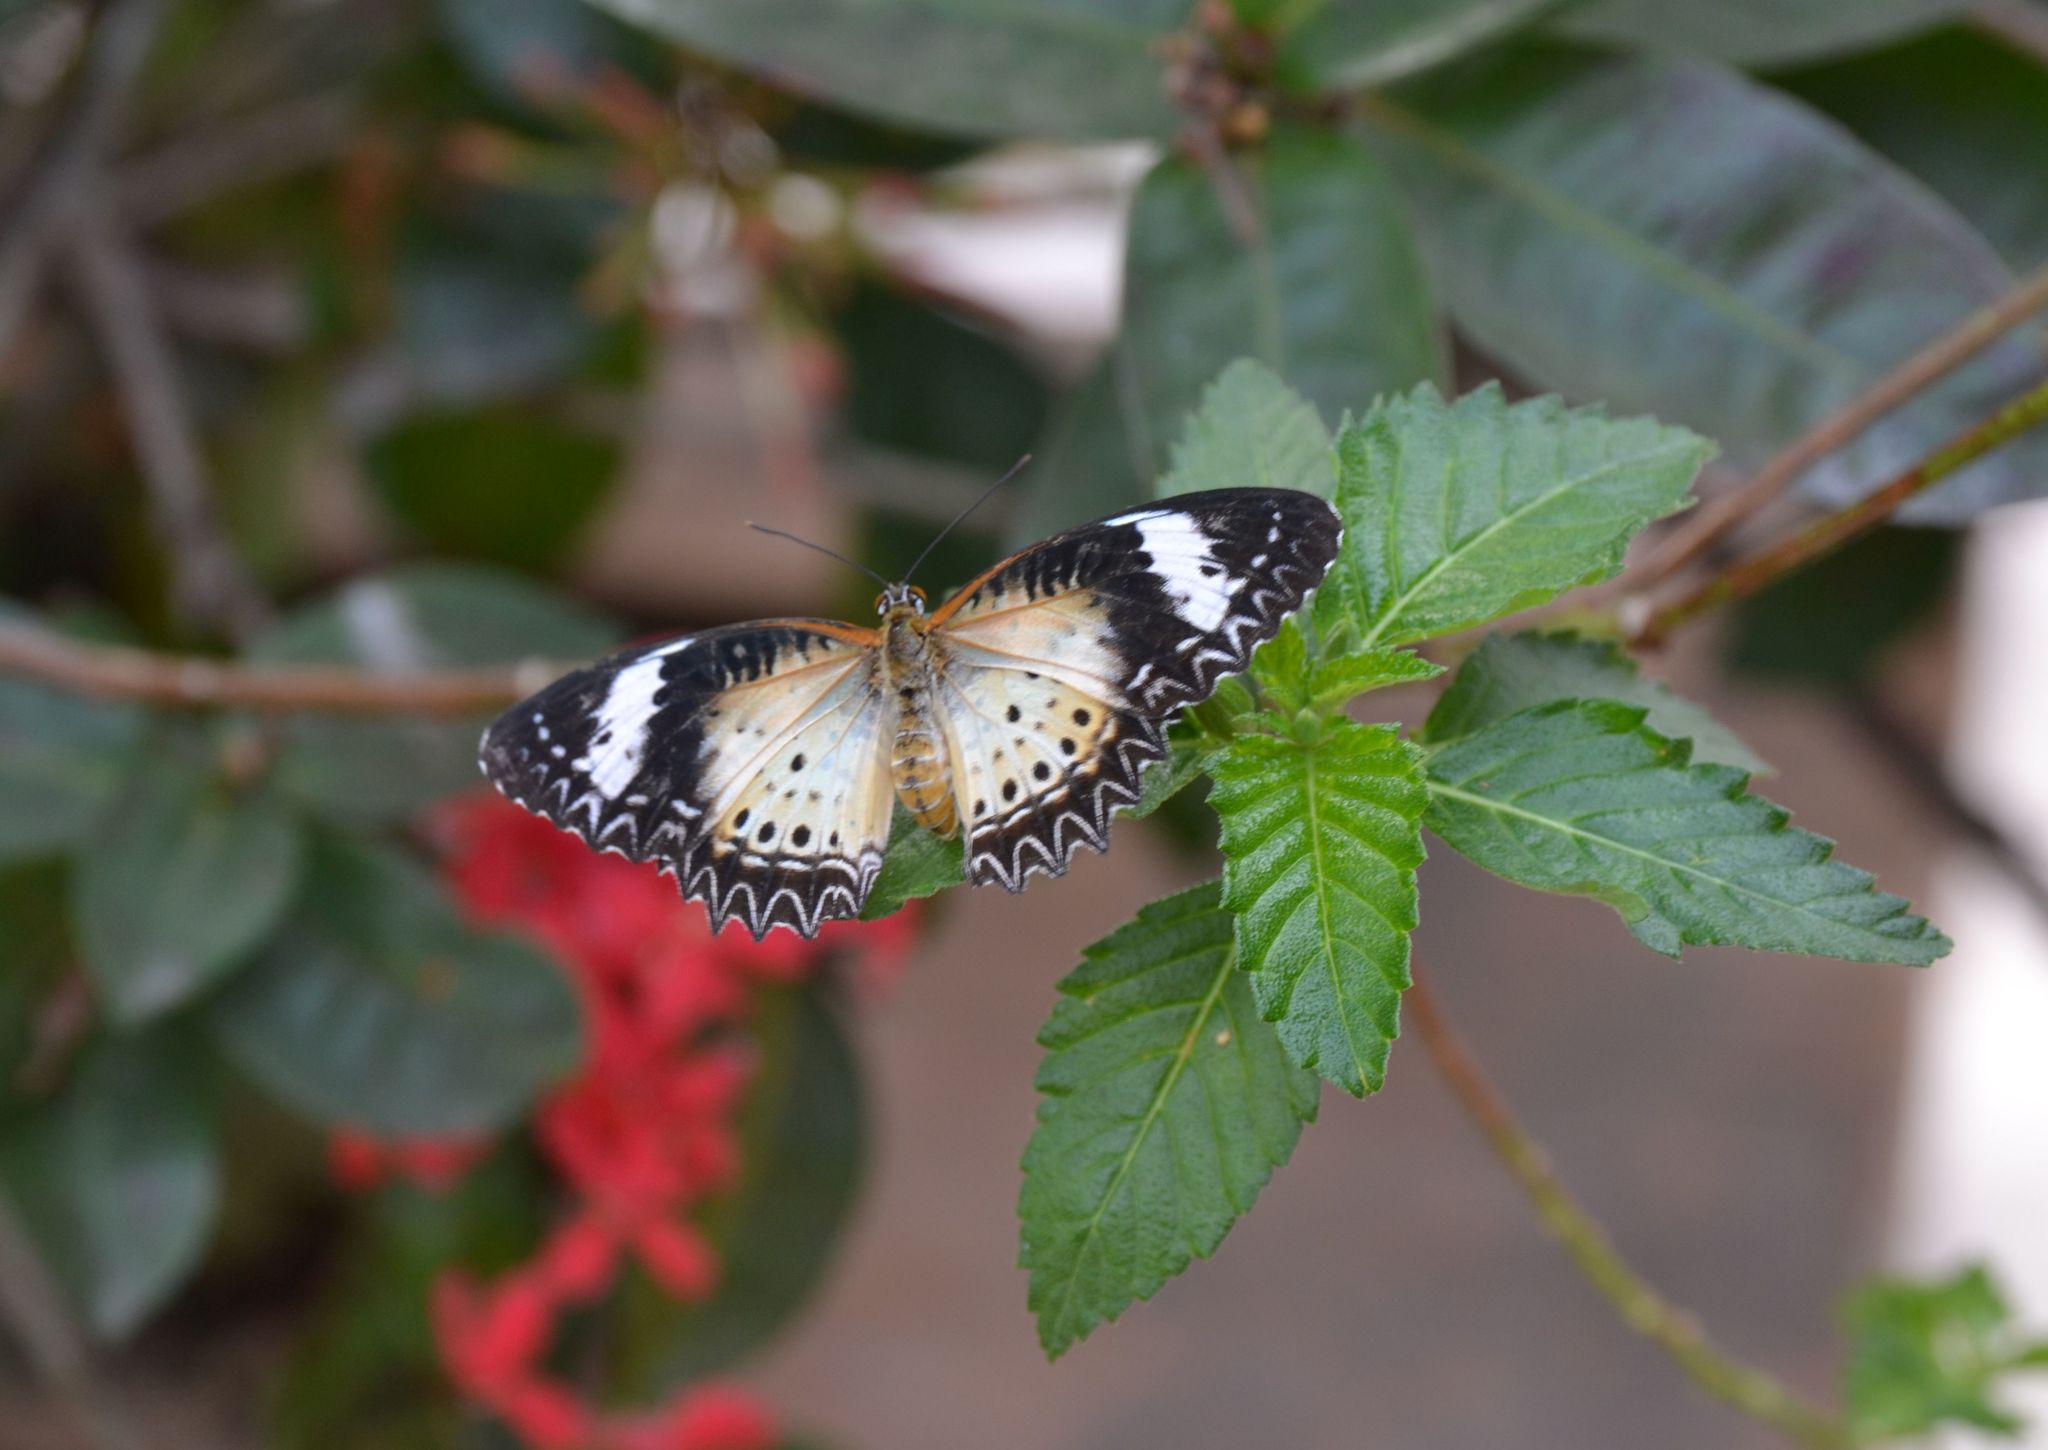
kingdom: Animalia
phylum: Arthropoda
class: Insecta
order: Lepidoptera
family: Nymphalidae
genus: Cethosia
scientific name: Cethosia cyane
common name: Leopard lacewing butterfly
